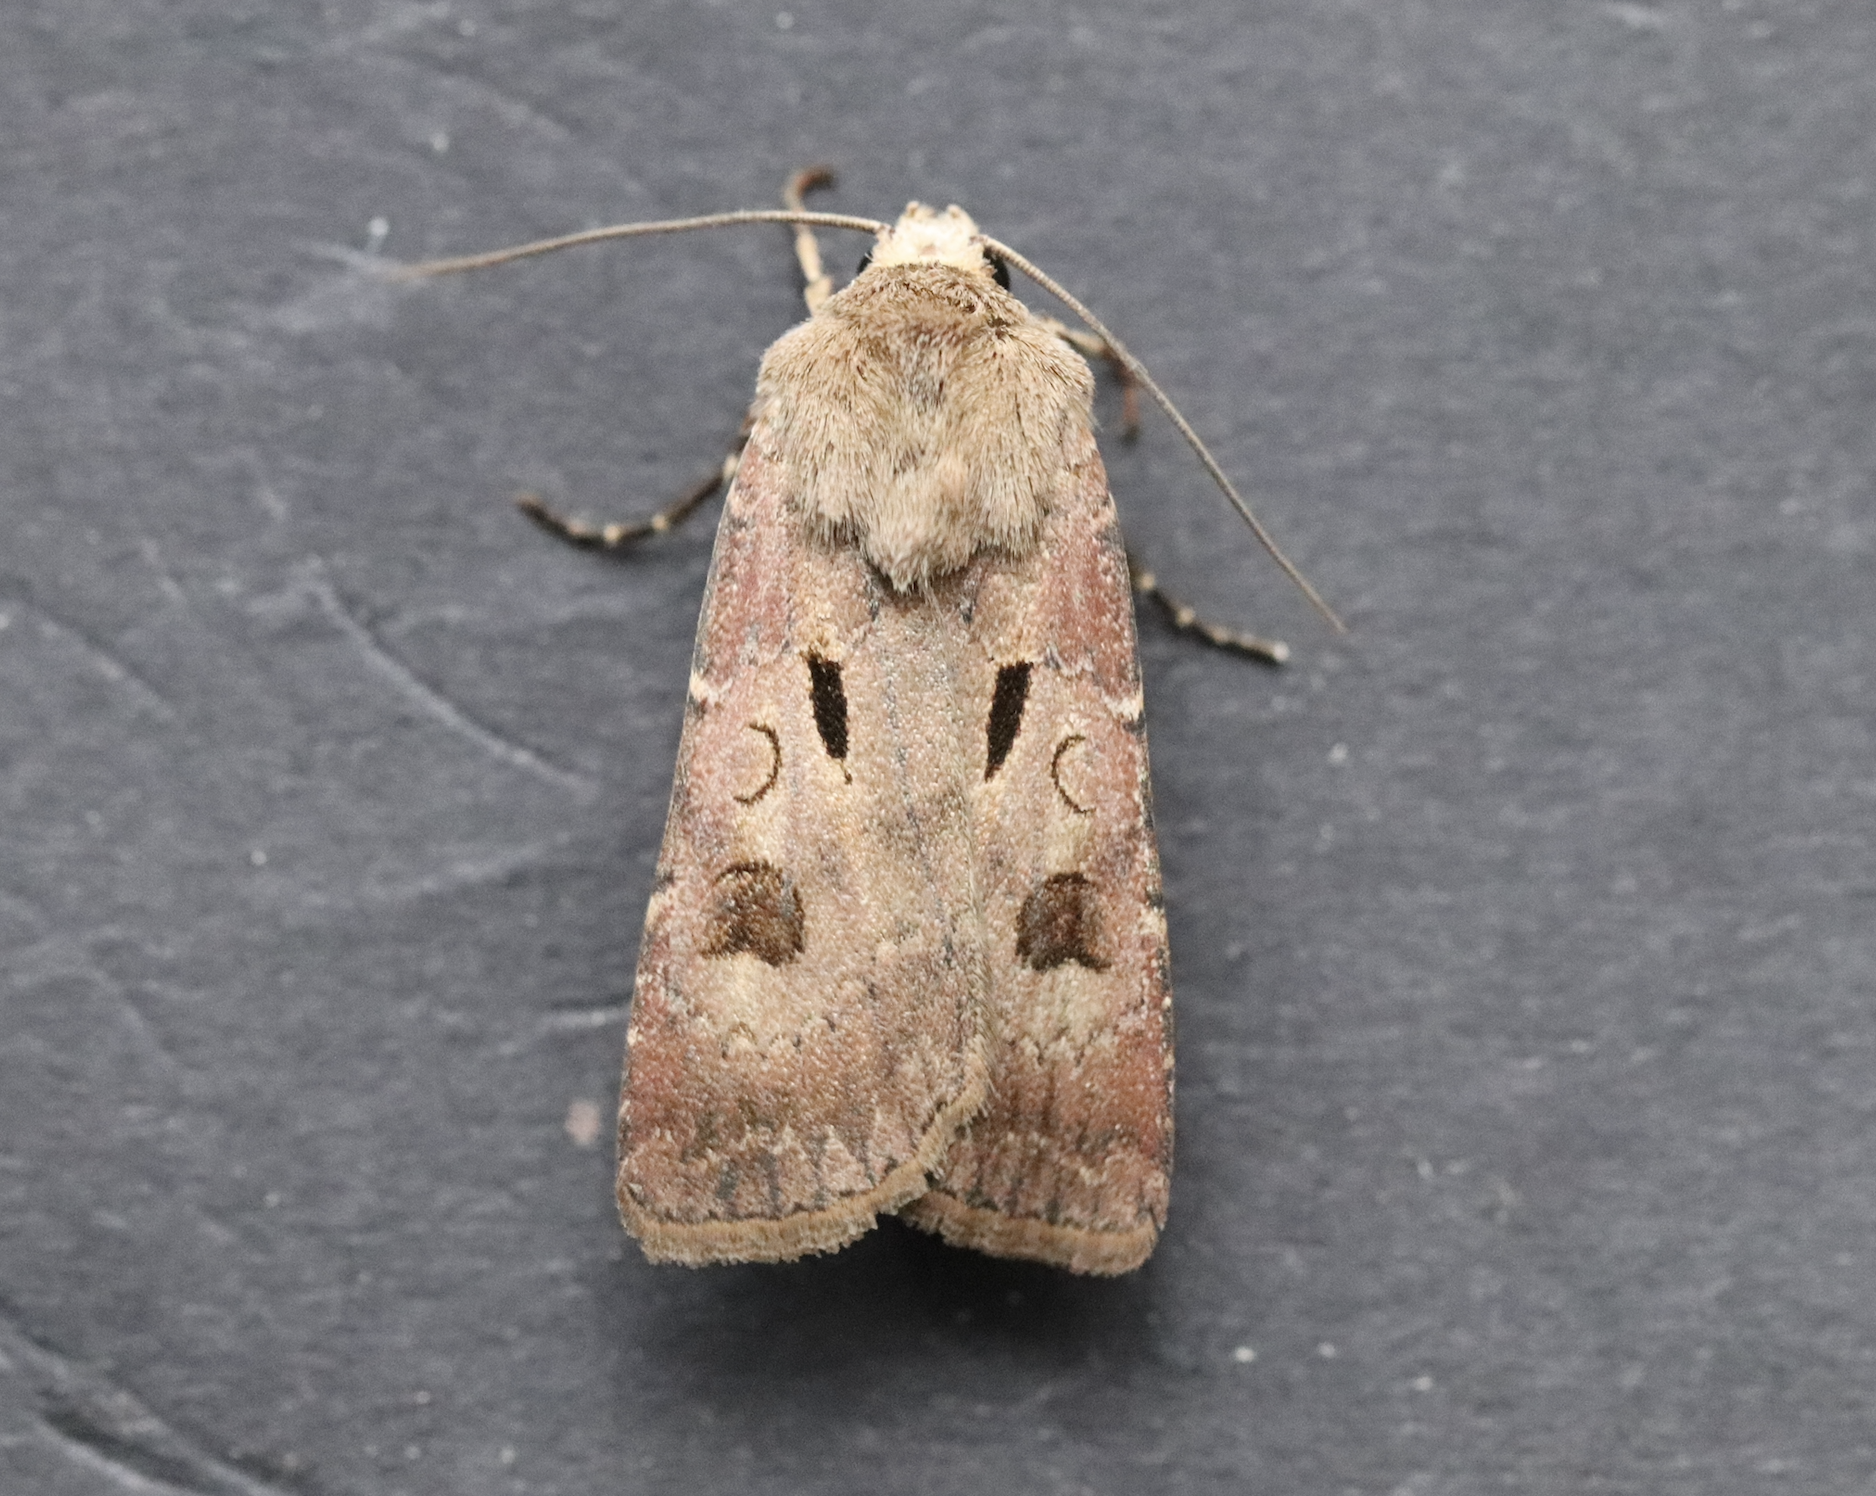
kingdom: Animalia
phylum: Arthropoda
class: Insecta
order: Lepidoptera
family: Noctuidae
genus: Agrotis
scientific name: Agrotis exclamationis
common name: Heart and dart
